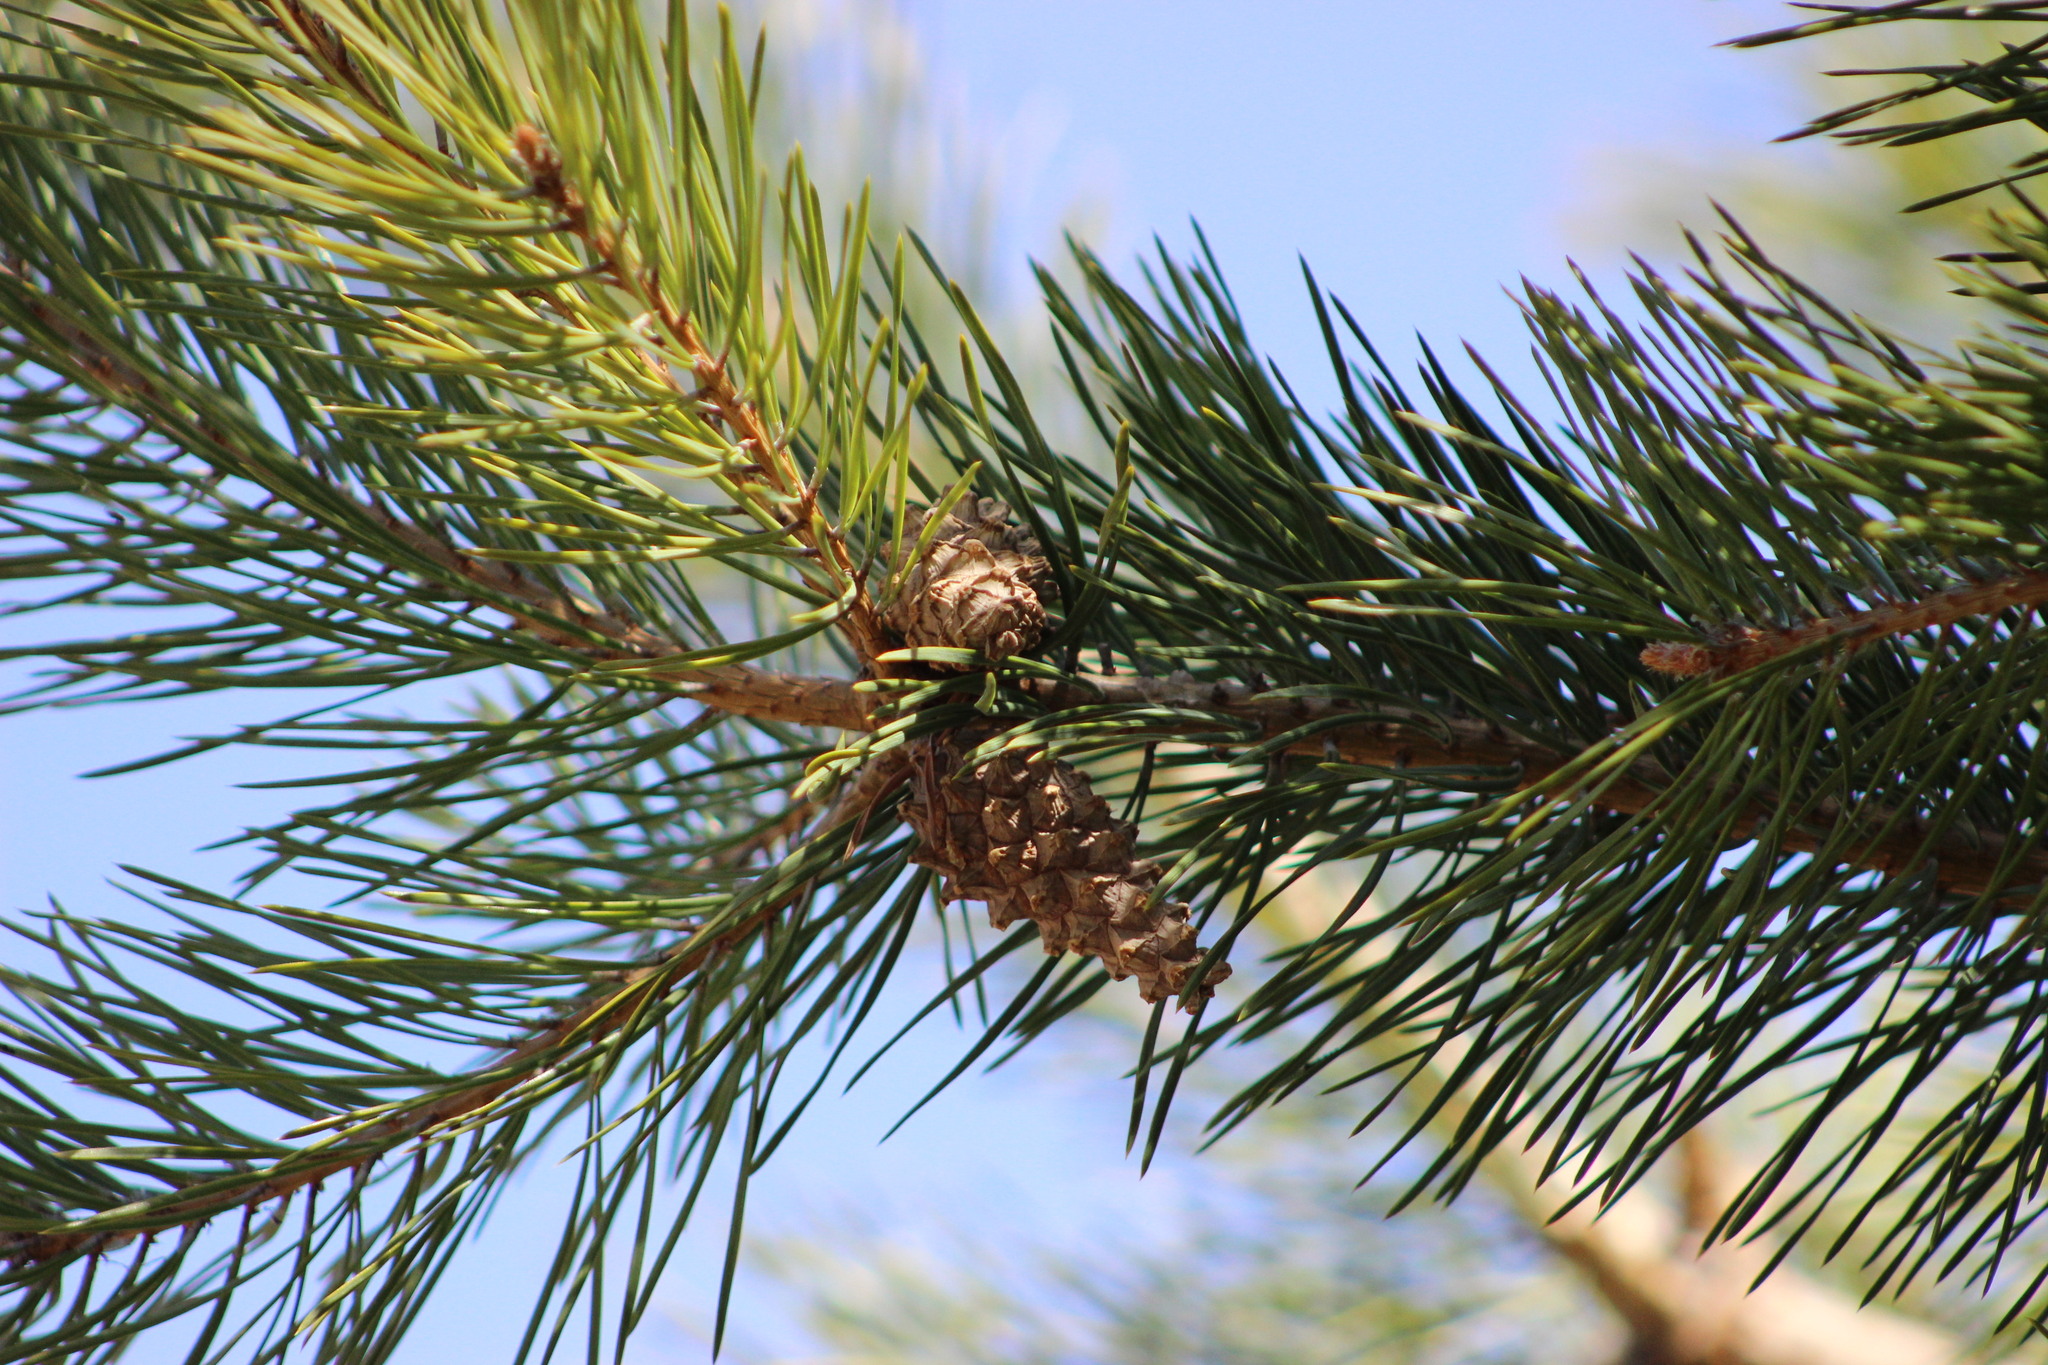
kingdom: Plantae
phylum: Tracheophyta
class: Pinopsida
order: Pinales
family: Pinaceae
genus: Pinus
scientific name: Pinus sylvestris
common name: Scots pine
